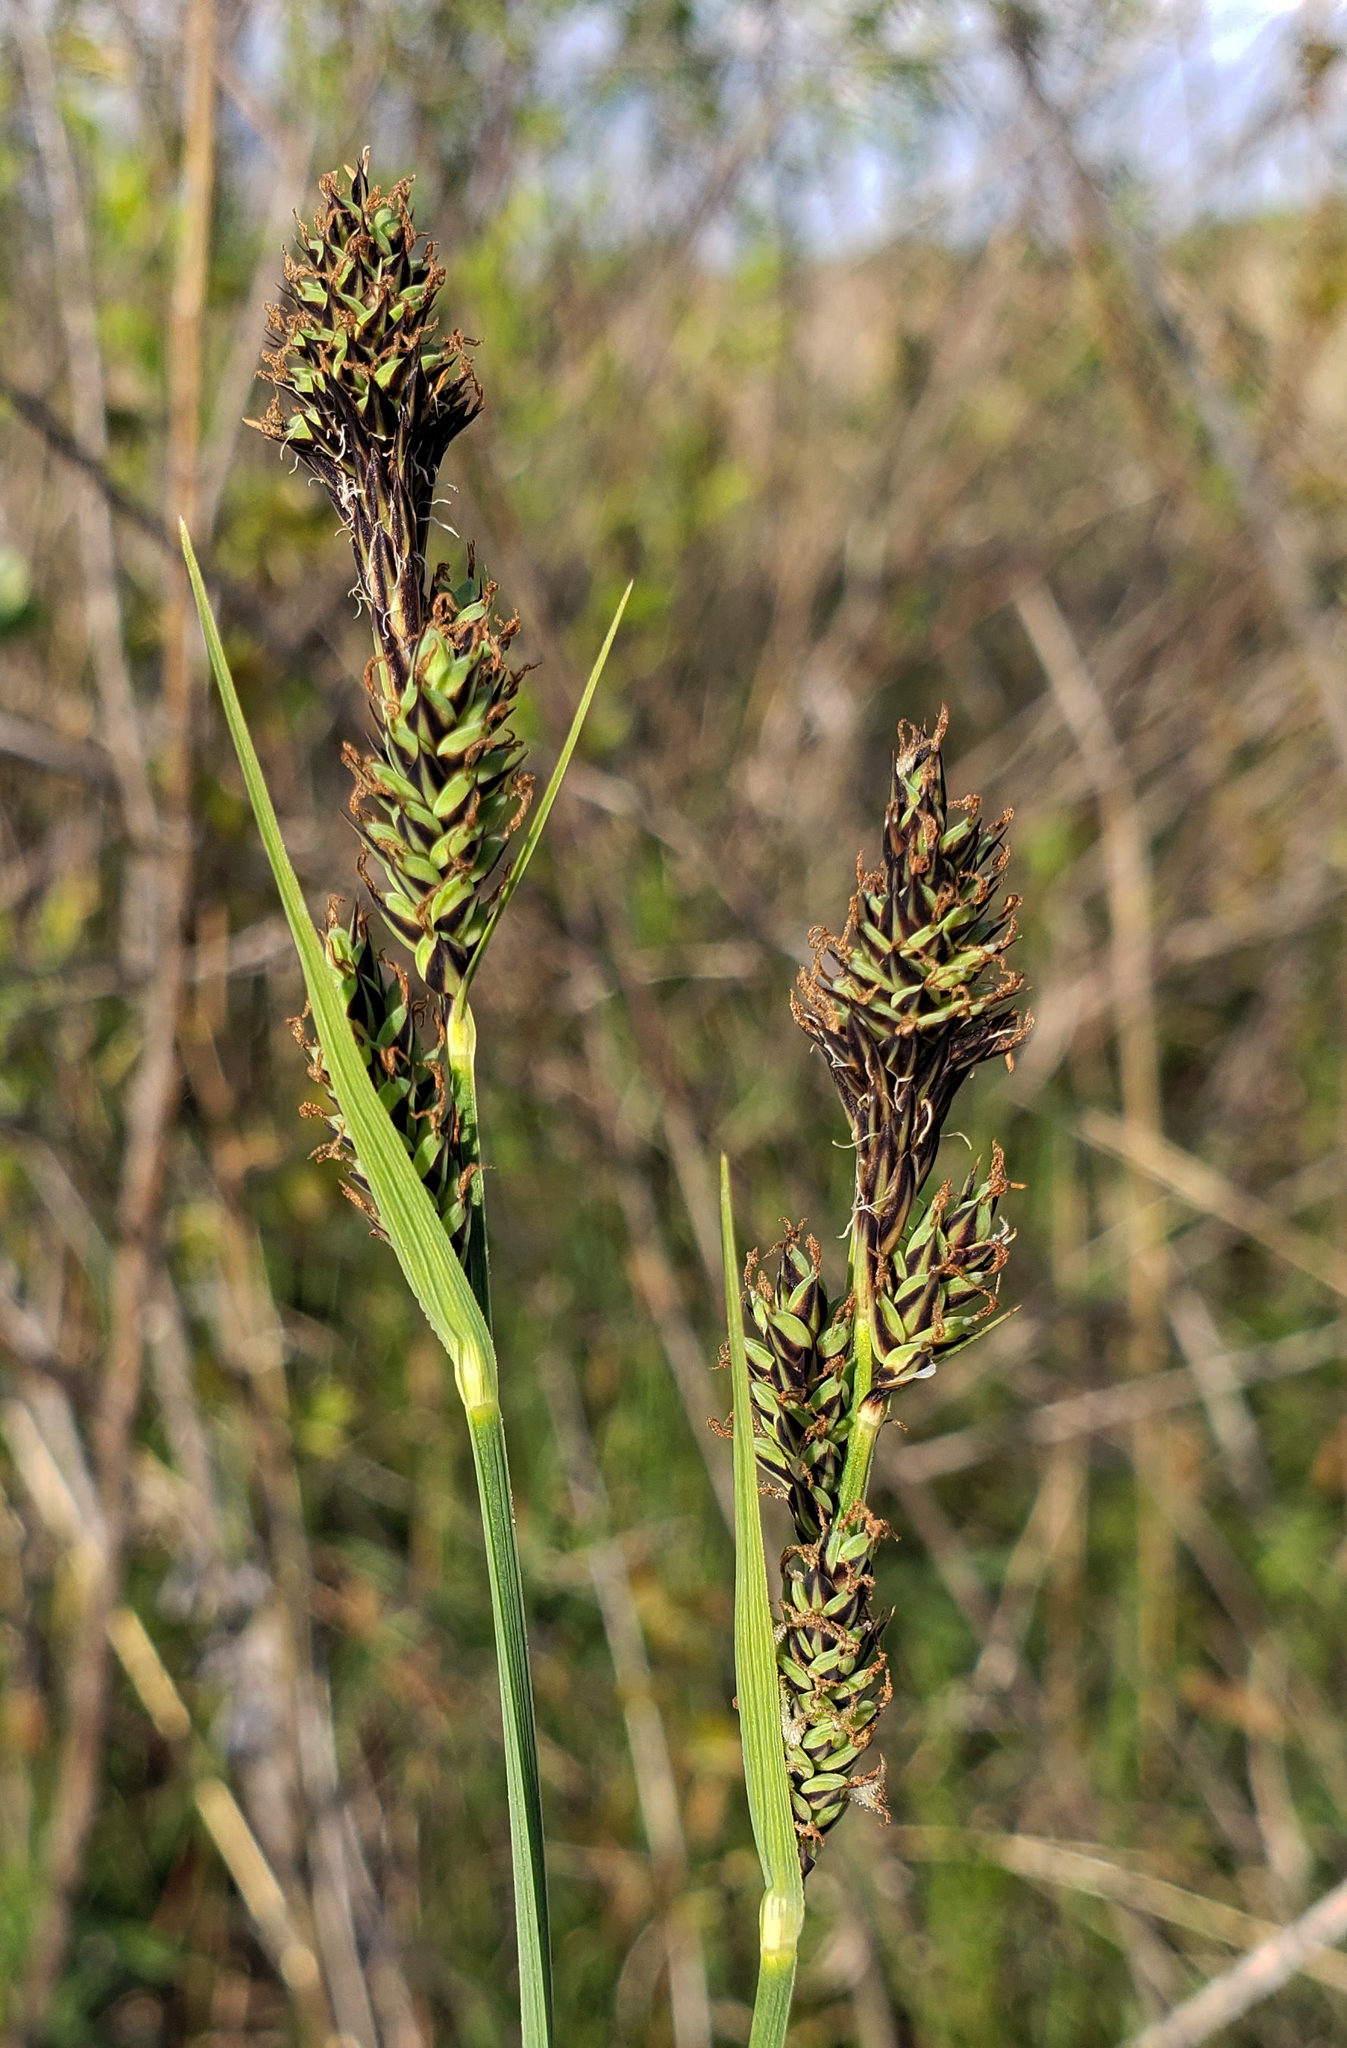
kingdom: Plantae
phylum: Tracheophyta
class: Liliopsida
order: Poales
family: Cyperaceae
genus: Carex
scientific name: Carex buxbaumii
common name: Club sedge
